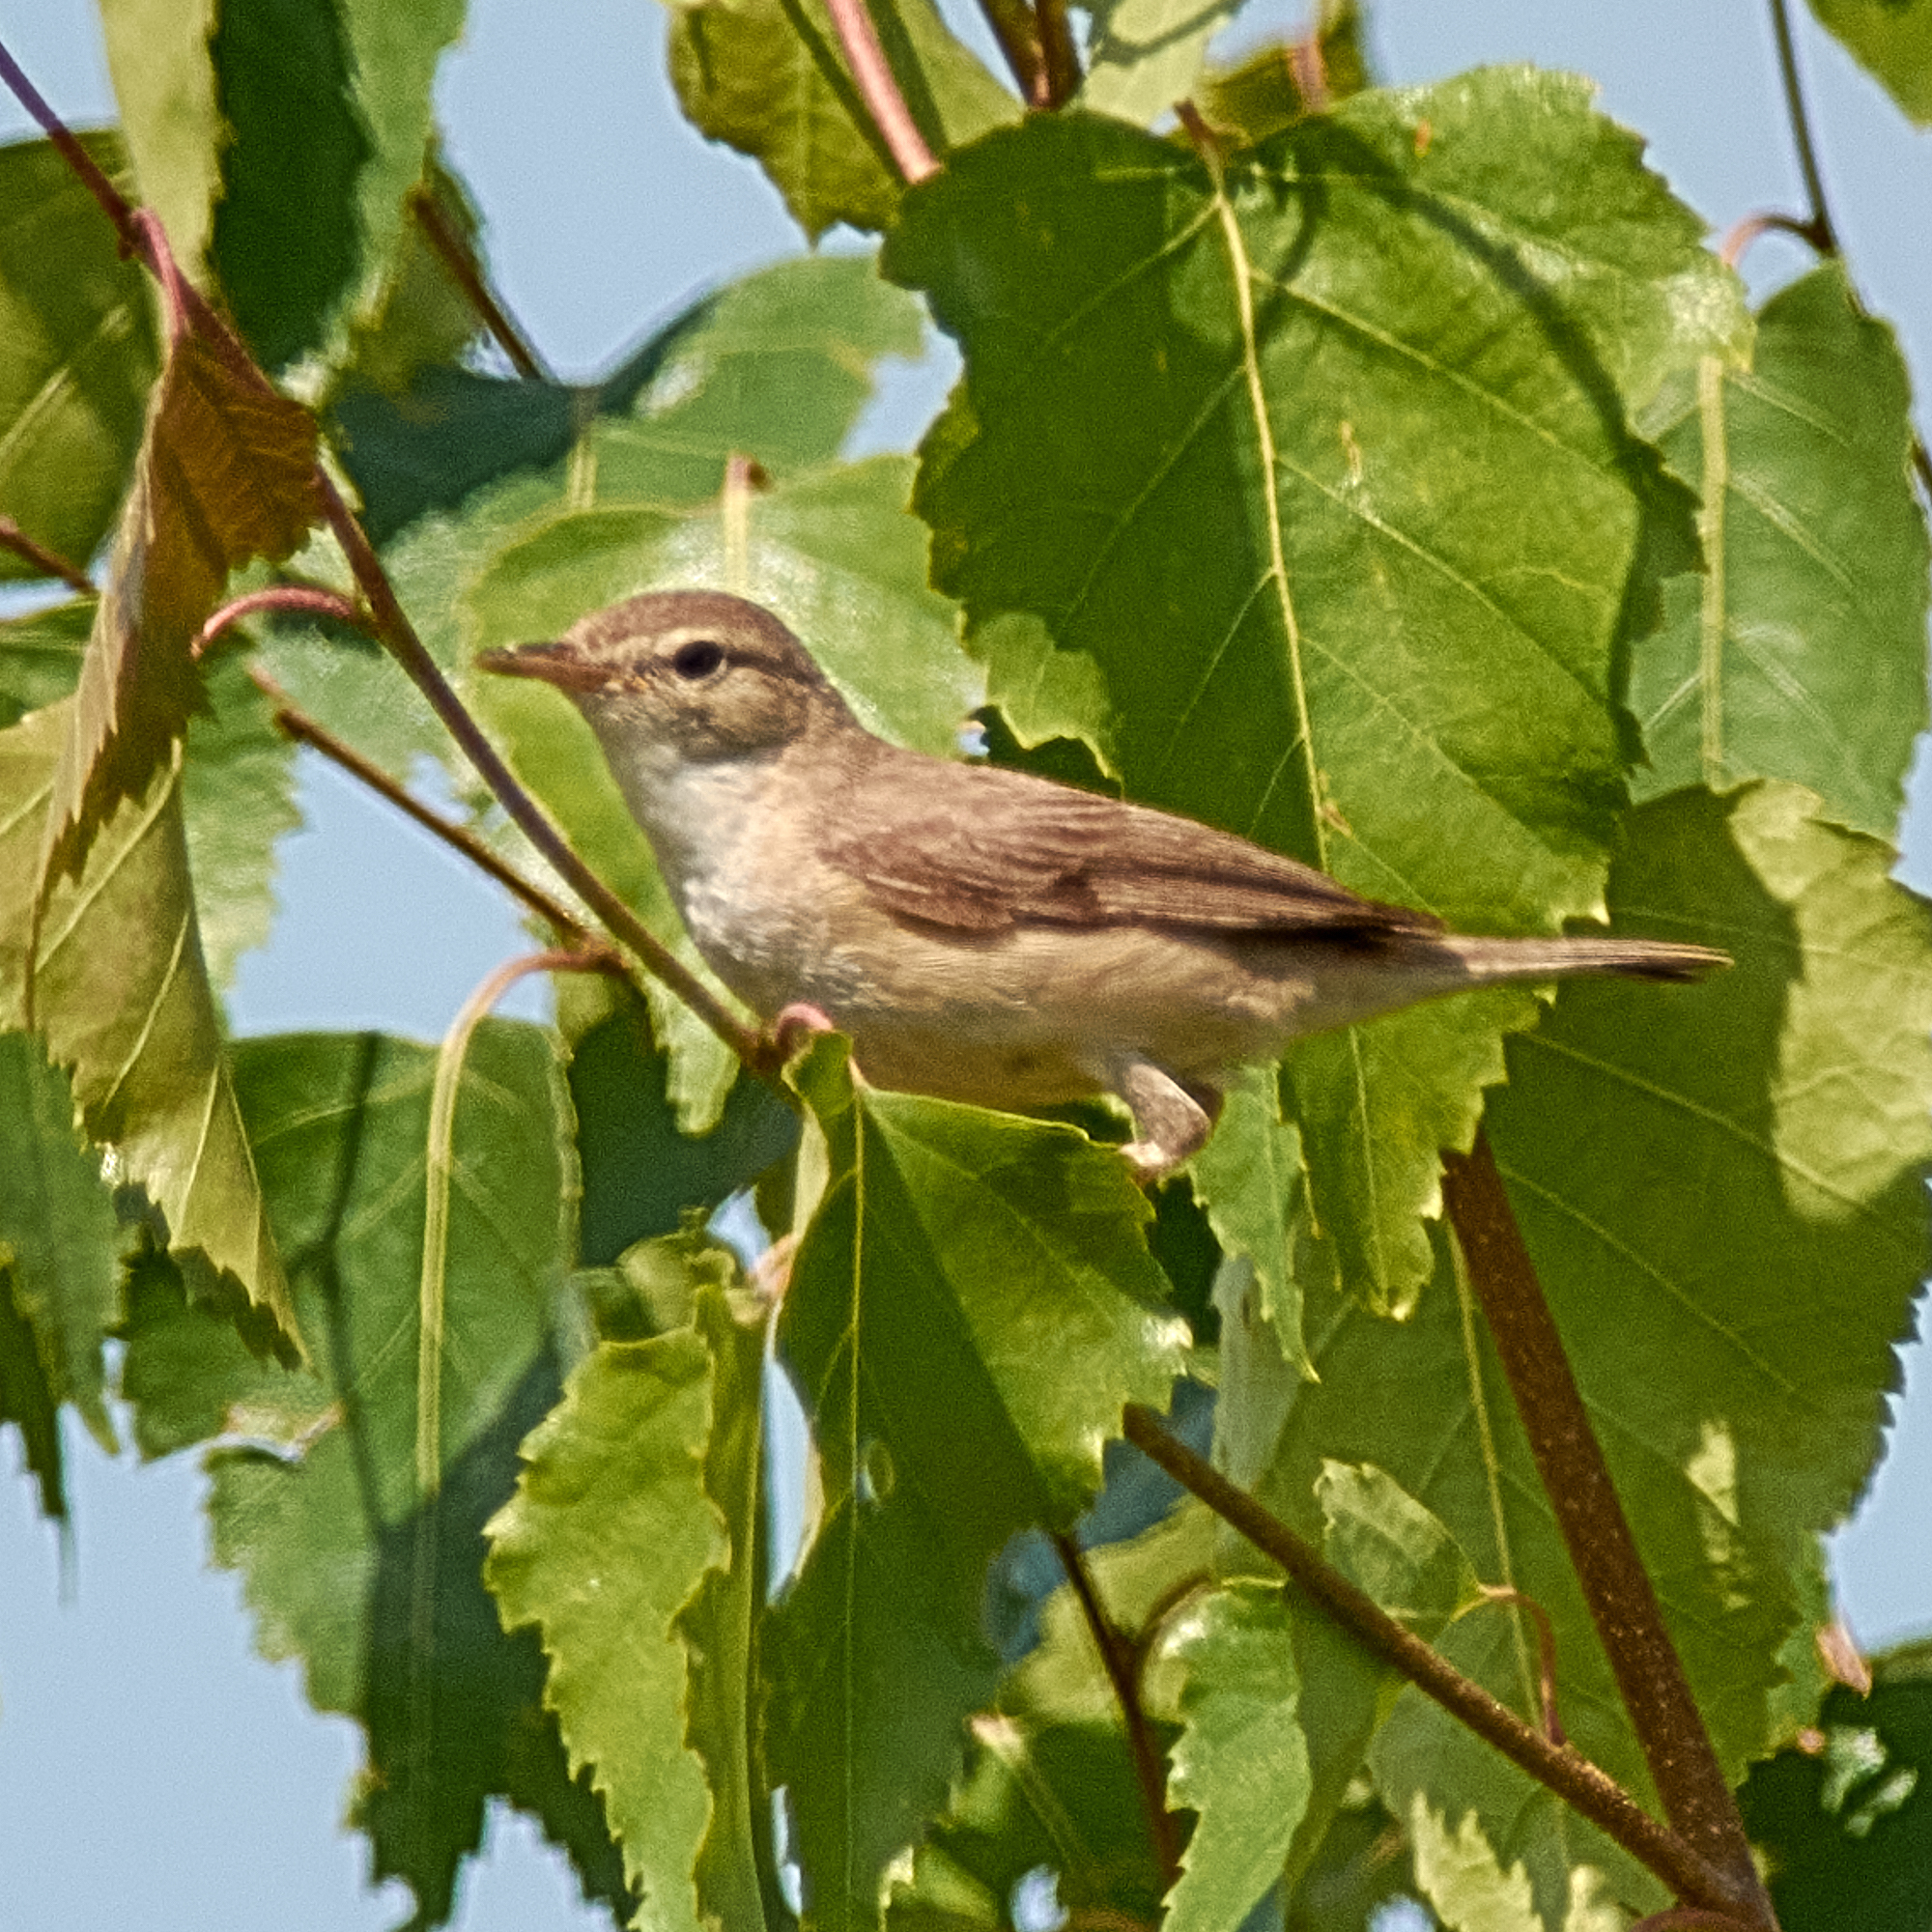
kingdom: Animalia
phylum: Chordata
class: Aves
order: Passeriformes
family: Acrocephalidae
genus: Iduna
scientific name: Iduna caligata
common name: Booted warbler
